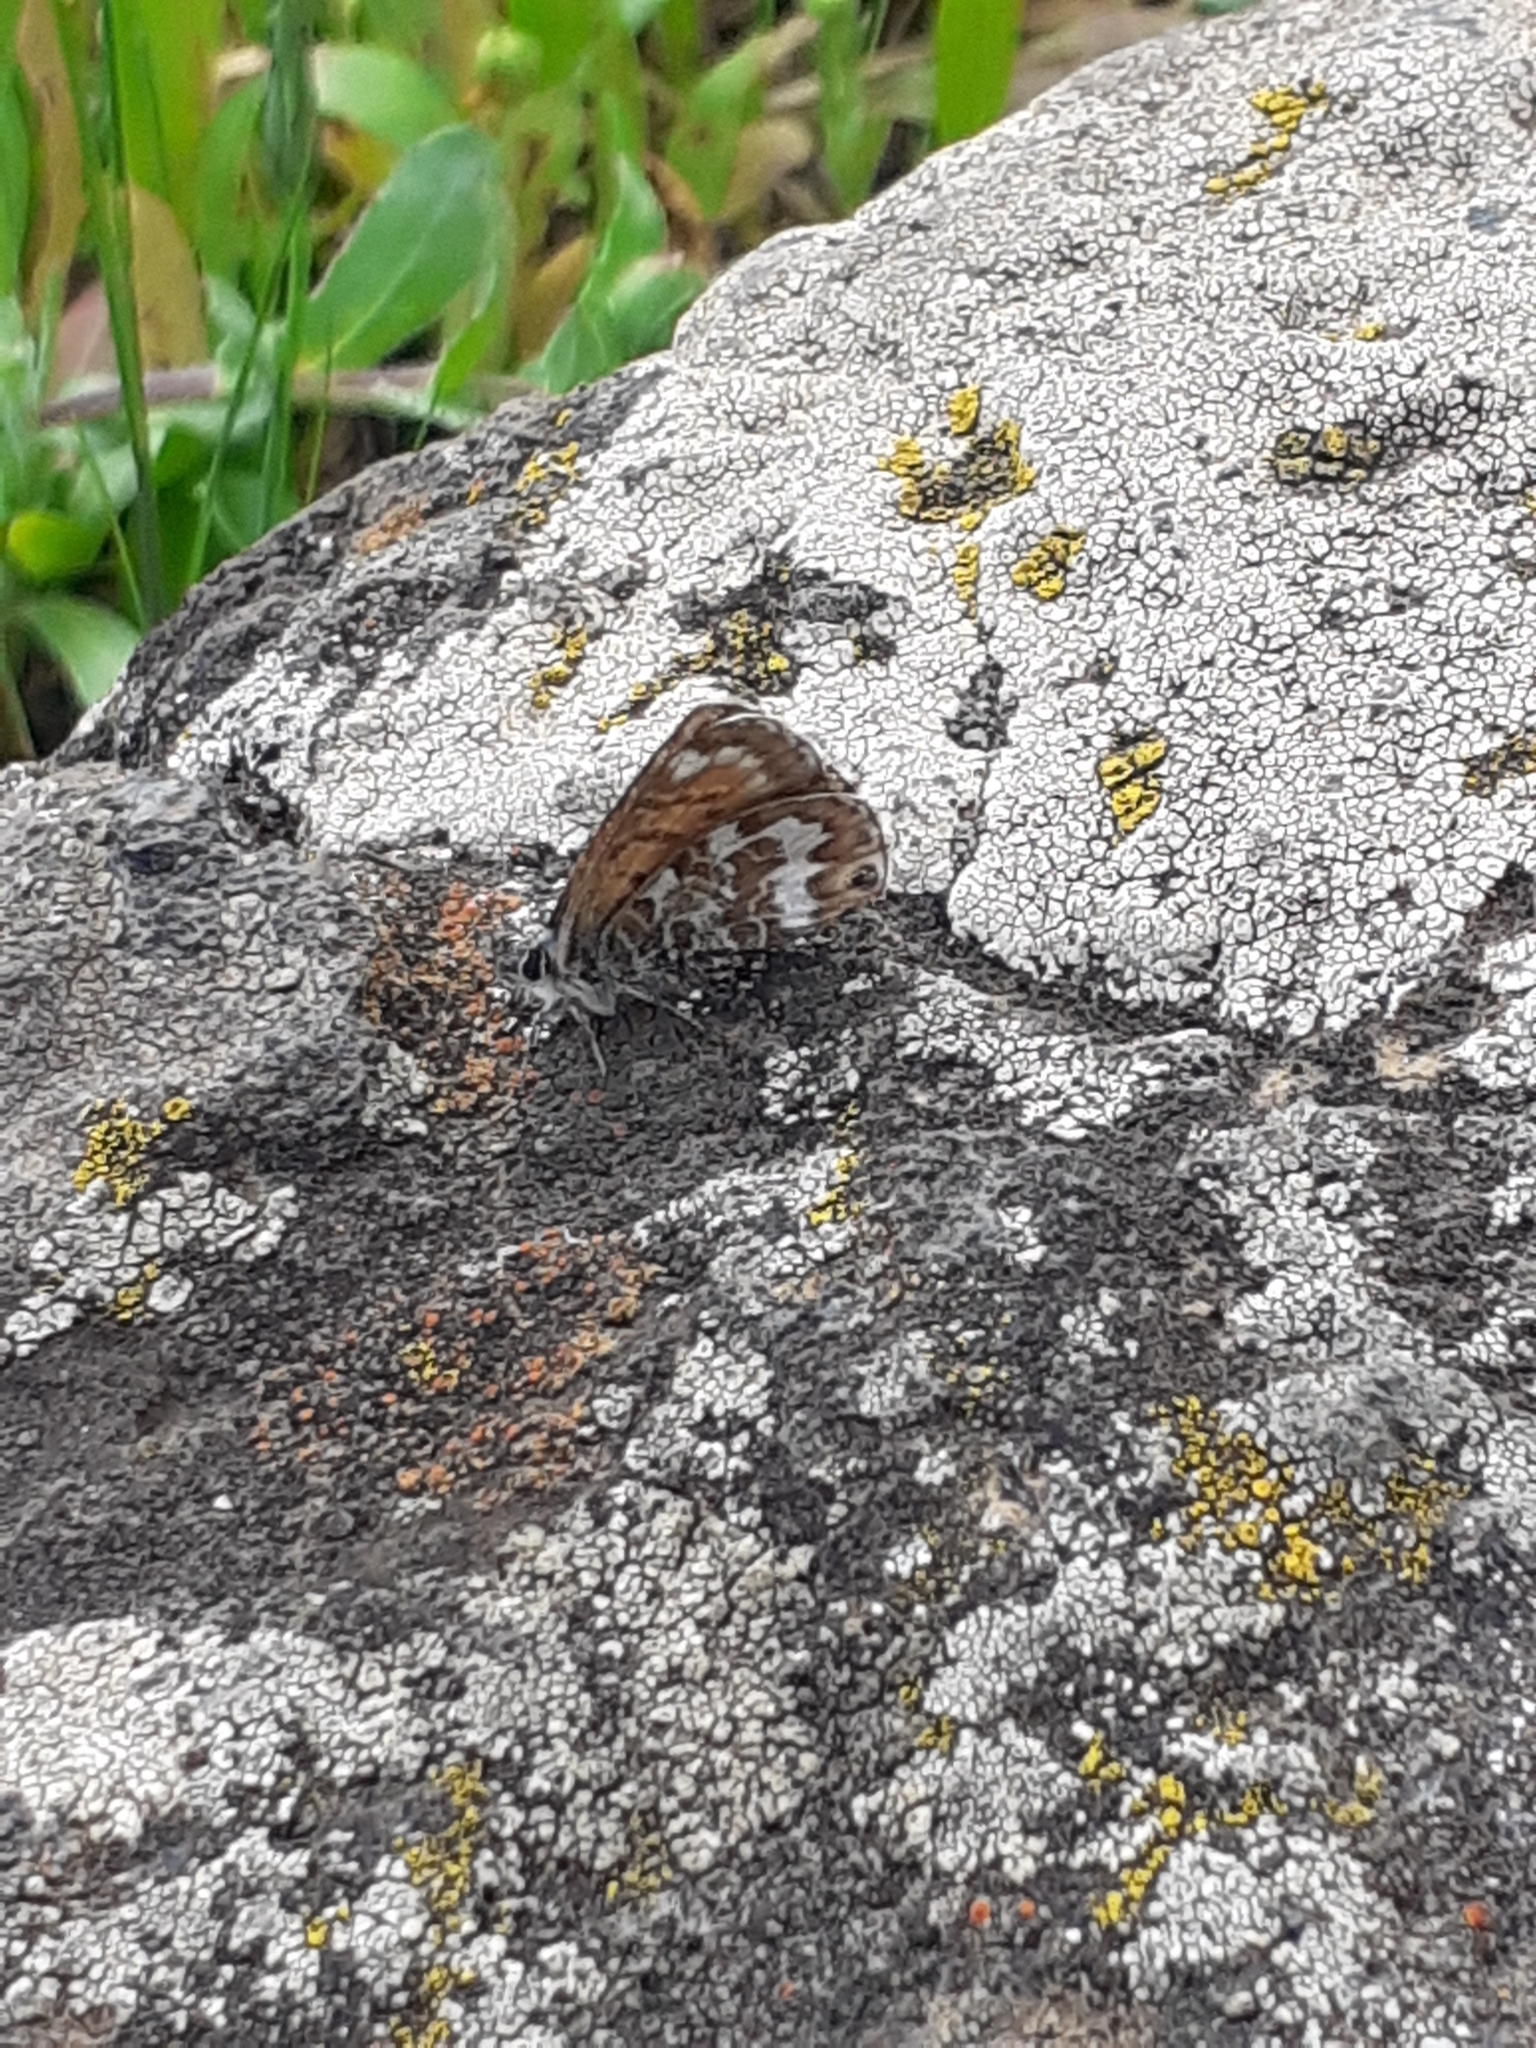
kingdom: Animalia
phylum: Arthropoda
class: Insecta
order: Lepidoptera
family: Lycaenidae
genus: Cyclyrius
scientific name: Cyclyrius webbianus
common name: Canary blue
